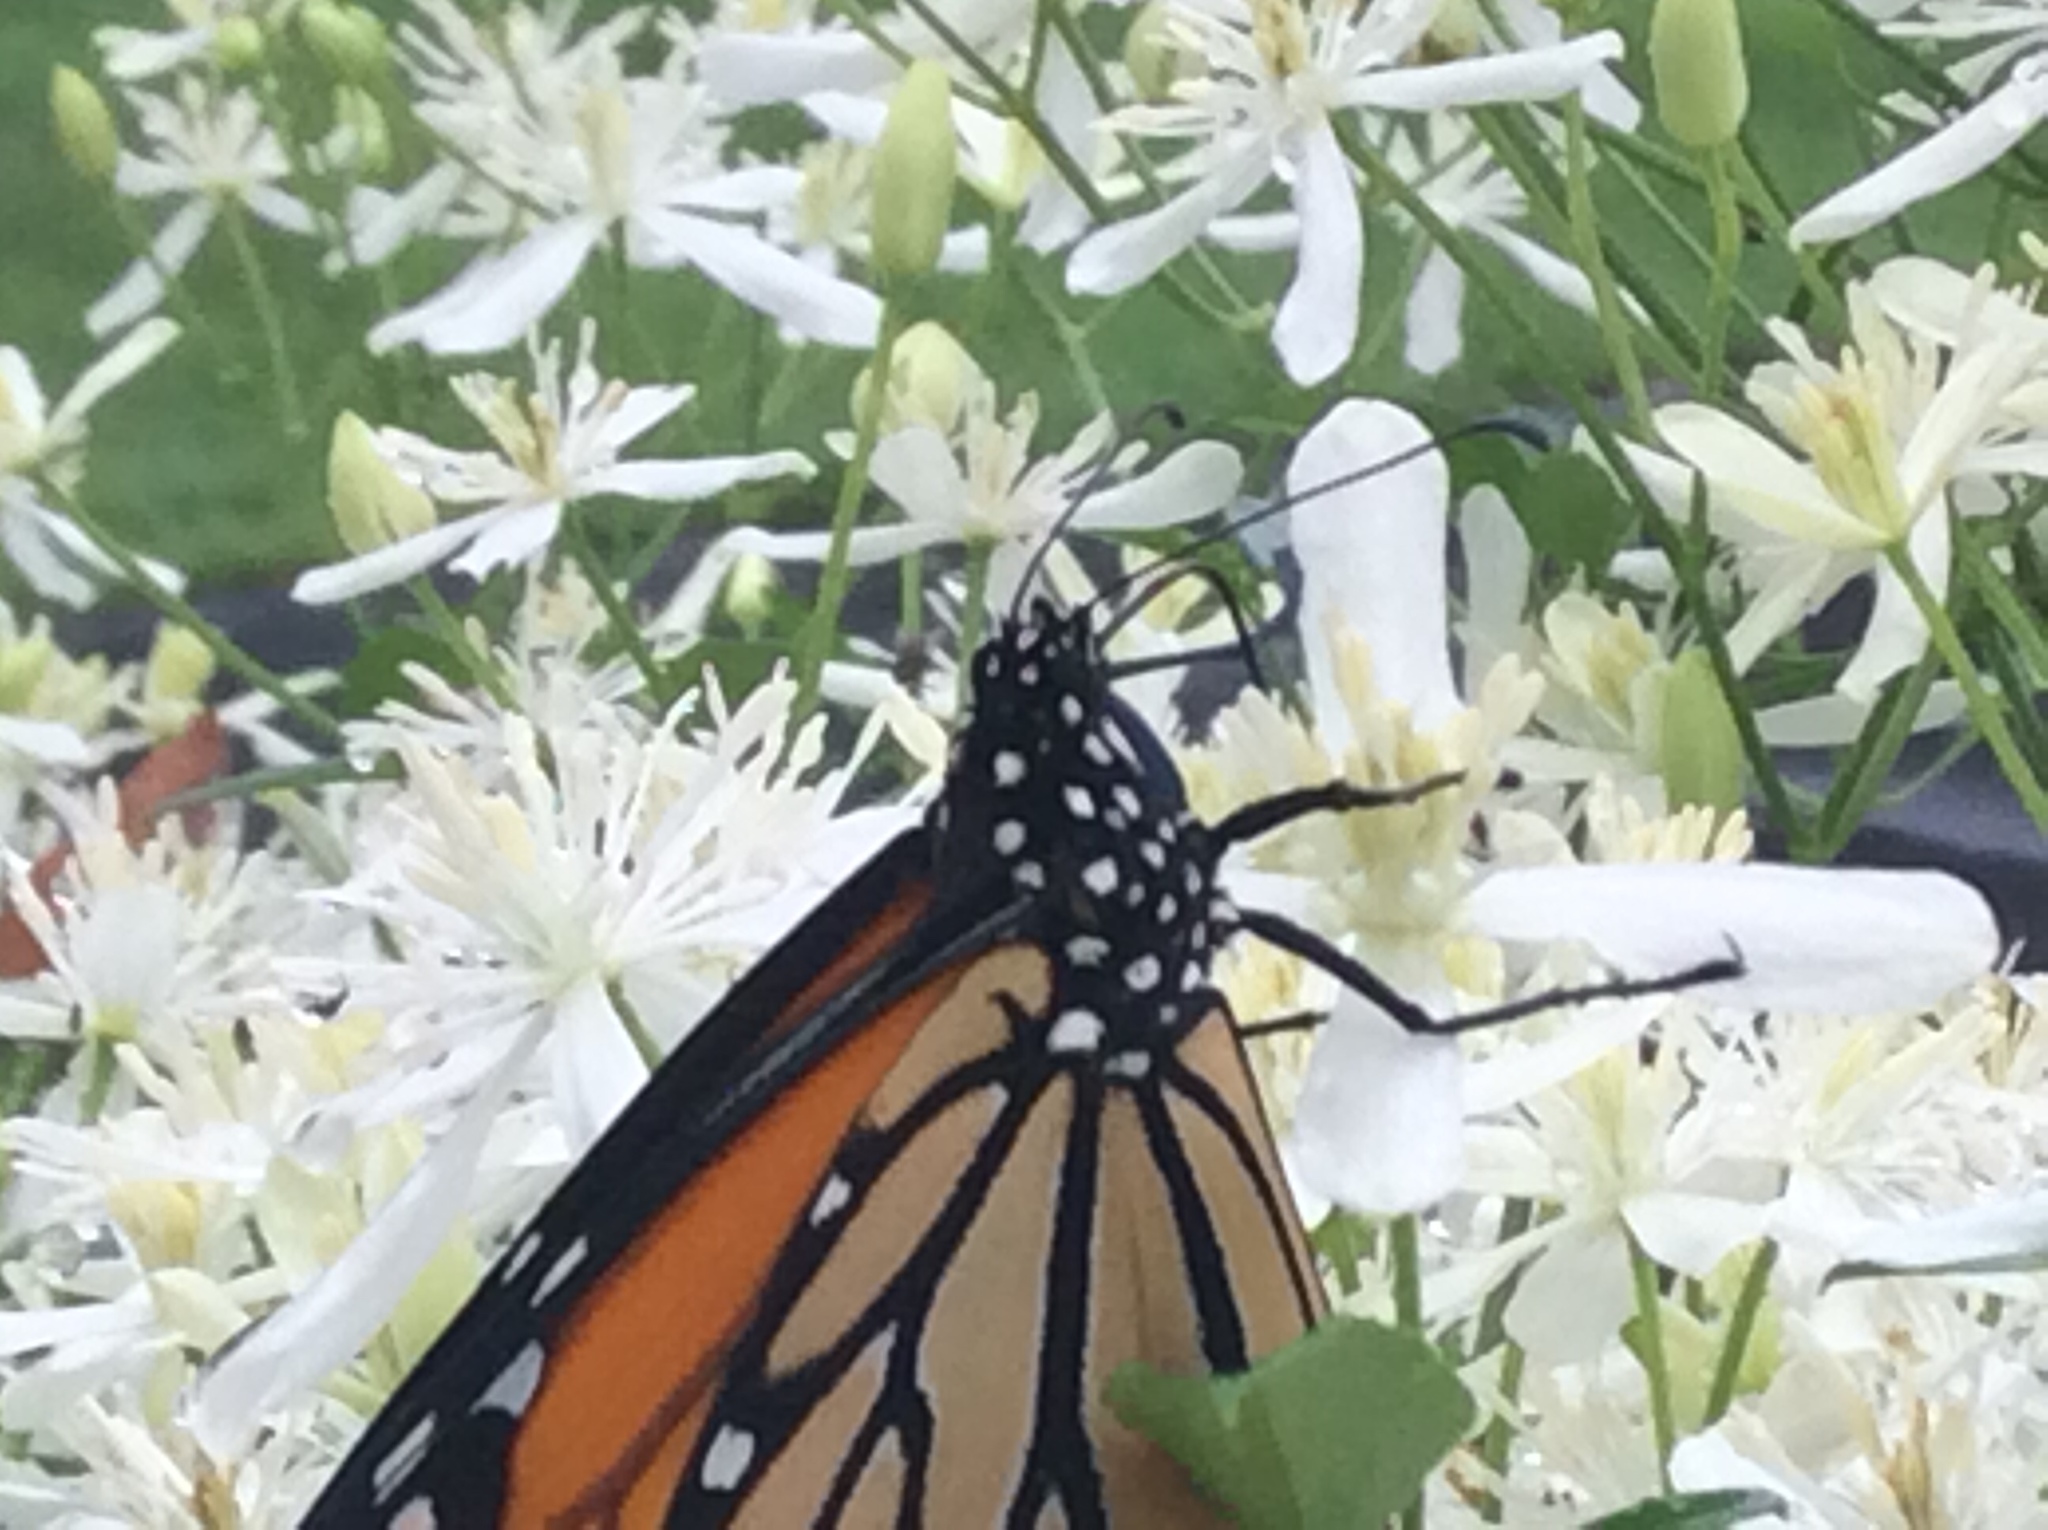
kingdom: Animalia
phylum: Arthropoda
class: Insecta
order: Lepidoptera
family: Nymphalidae
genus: Danaus
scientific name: Danaus plexippus
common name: Monarch
